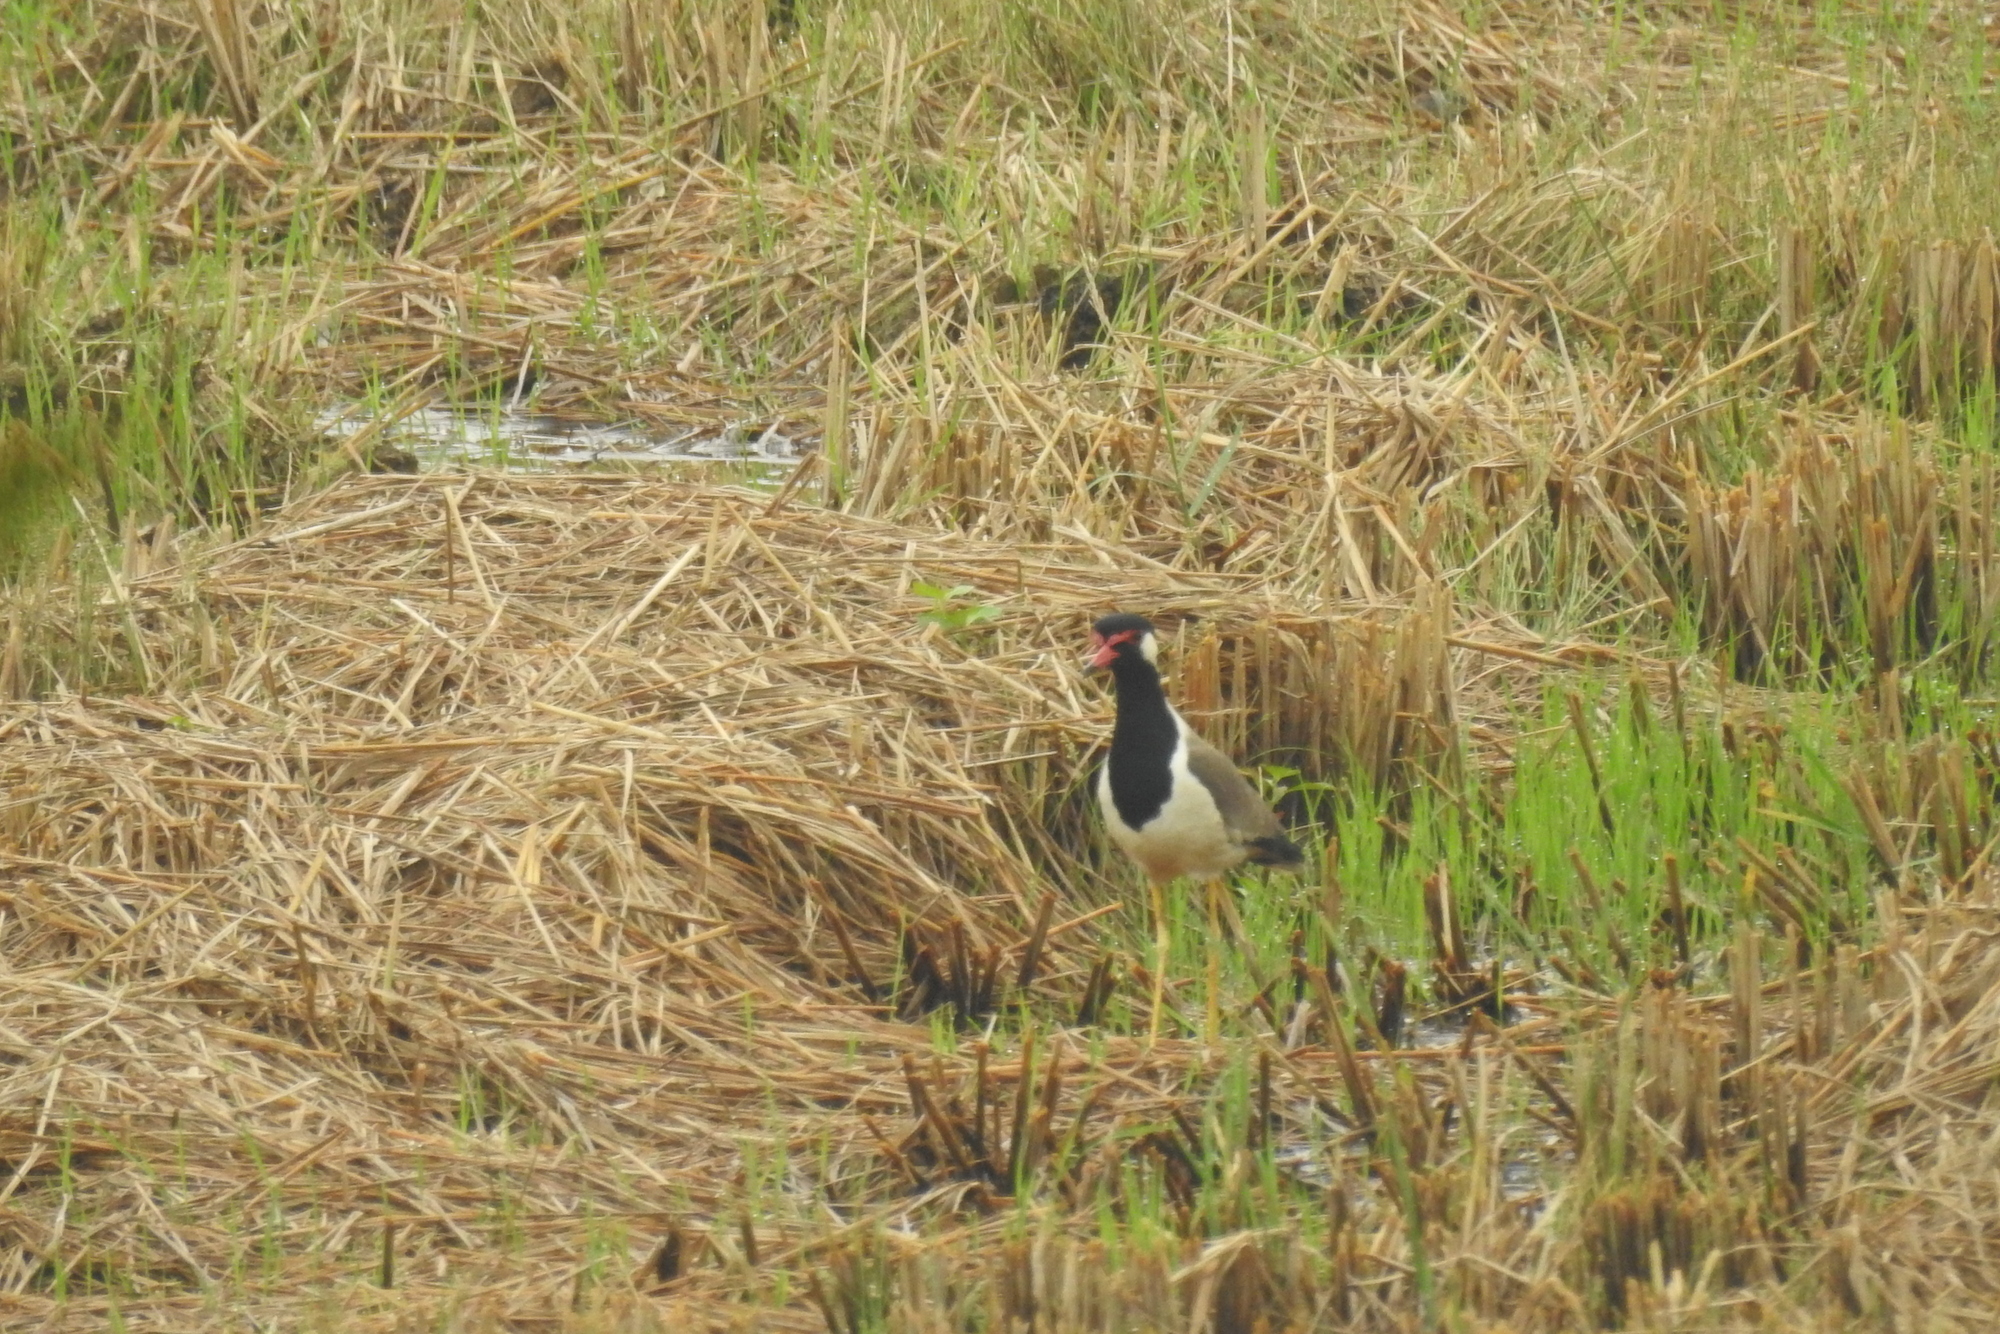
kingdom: Animalia
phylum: Chordata
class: Aves
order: Charadriiformes
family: Charadriidae
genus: Vanellus
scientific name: Vanellus indicus
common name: Red-wattled lapwing
